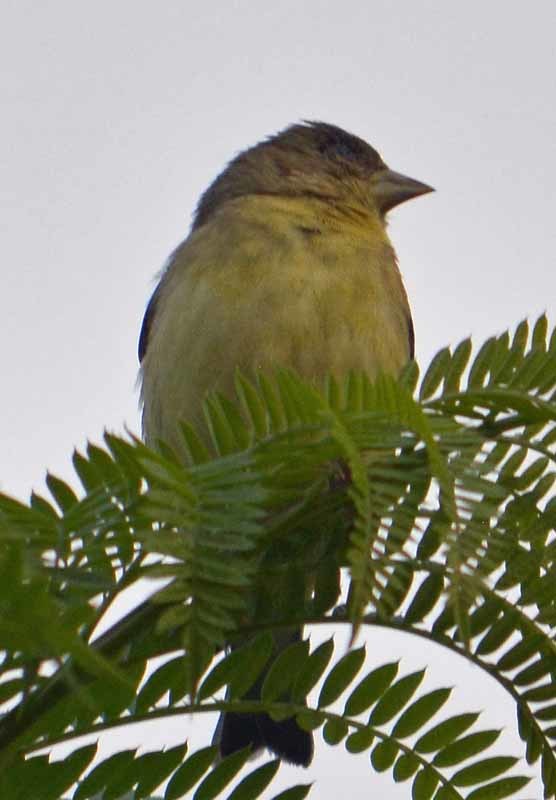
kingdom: Animalia
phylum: Chordata
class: Aves
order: Passeriformes
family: Fringillidae
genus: Spinus
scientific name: Spinus psaltria
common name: Lesser goldfinch
